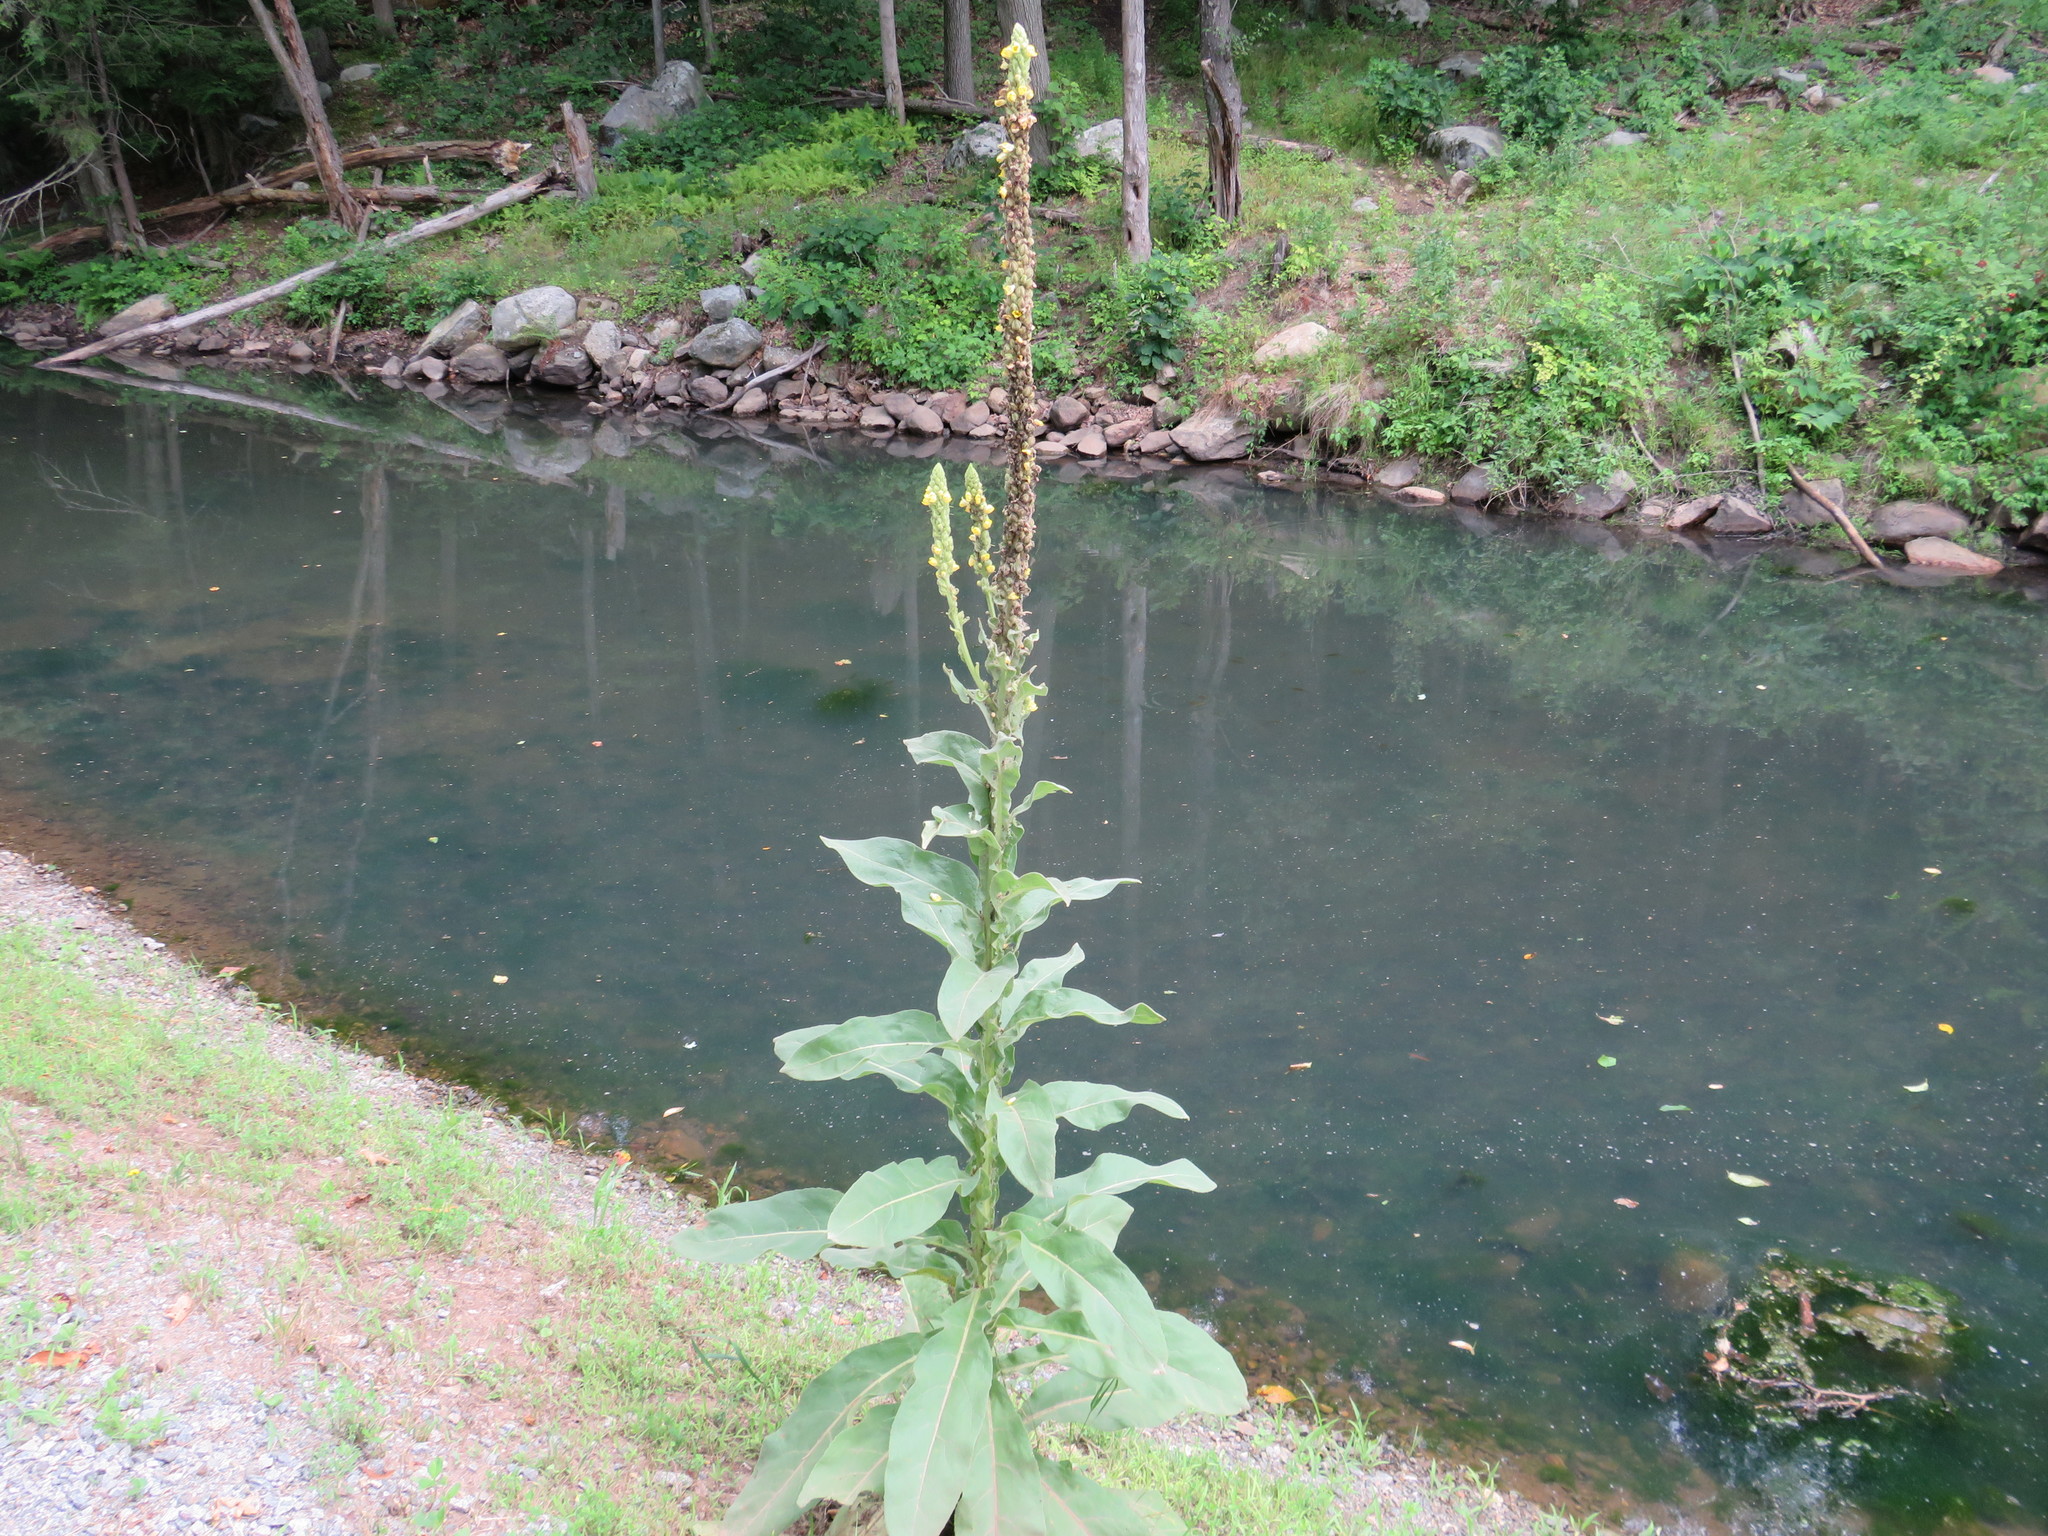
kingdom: Plantae
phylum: Tracheophyta
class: Magnoliopsida
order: Lamiales
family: Scrophulariaceae
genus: Verbascum
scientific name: Verbascum thapsus
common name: Common mullein
